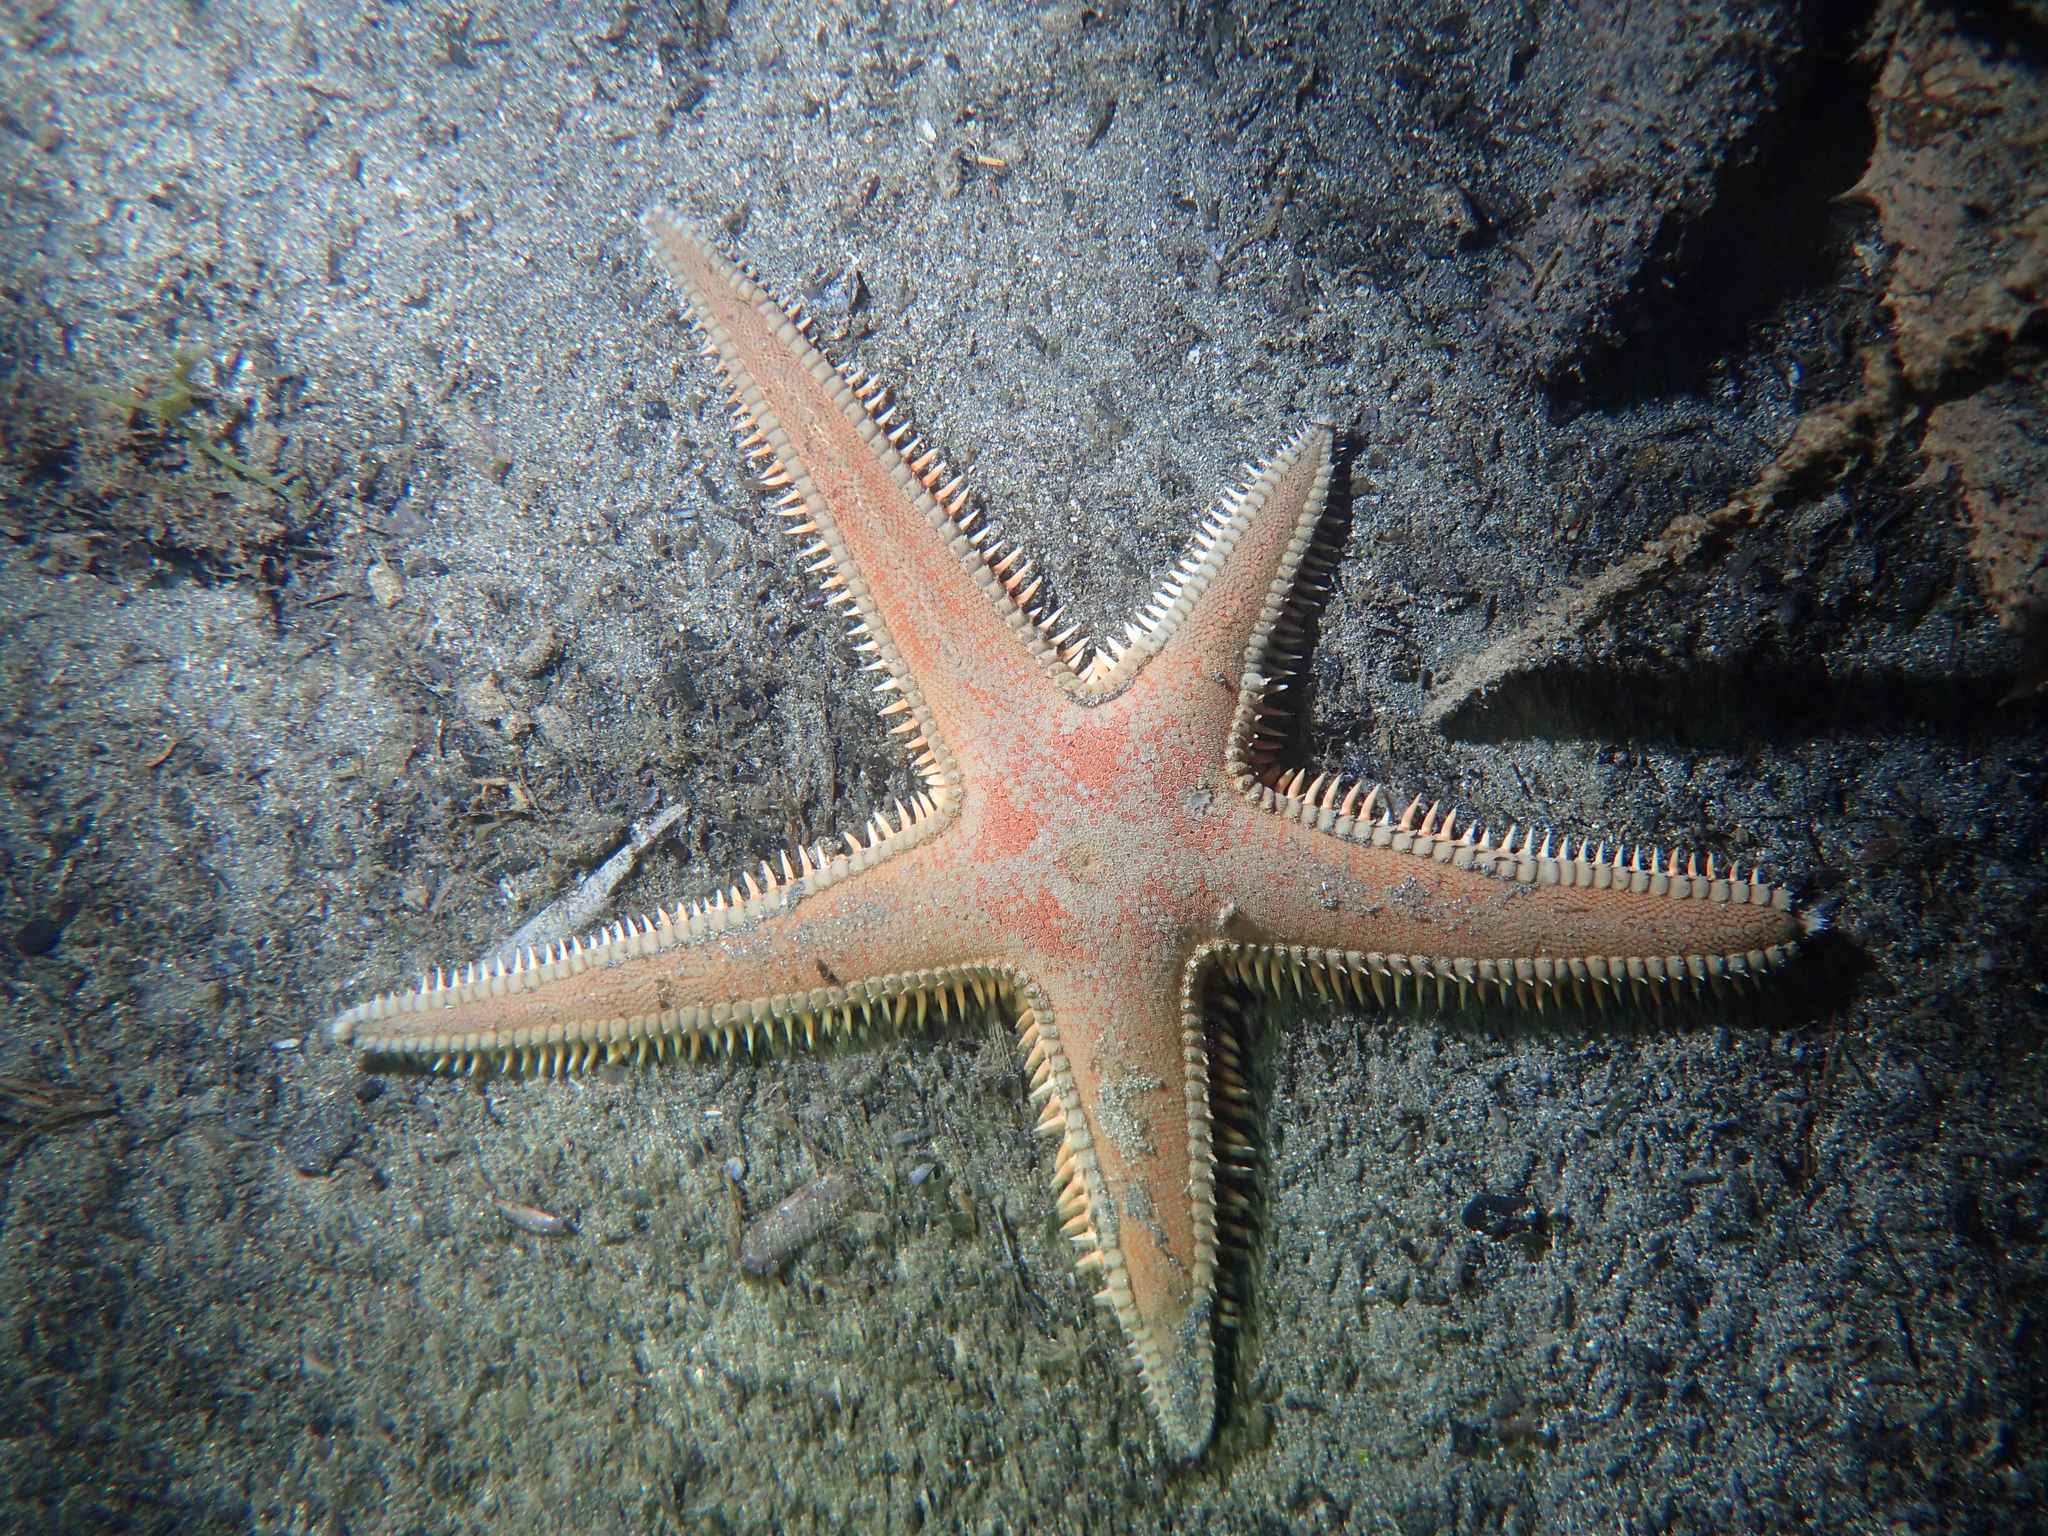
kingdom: Animalia
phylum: Echinodermata
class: Asteroidea
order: Paxillosida
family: Astropectinidae
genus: Astropecten
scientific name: Astropecten aranciacus
